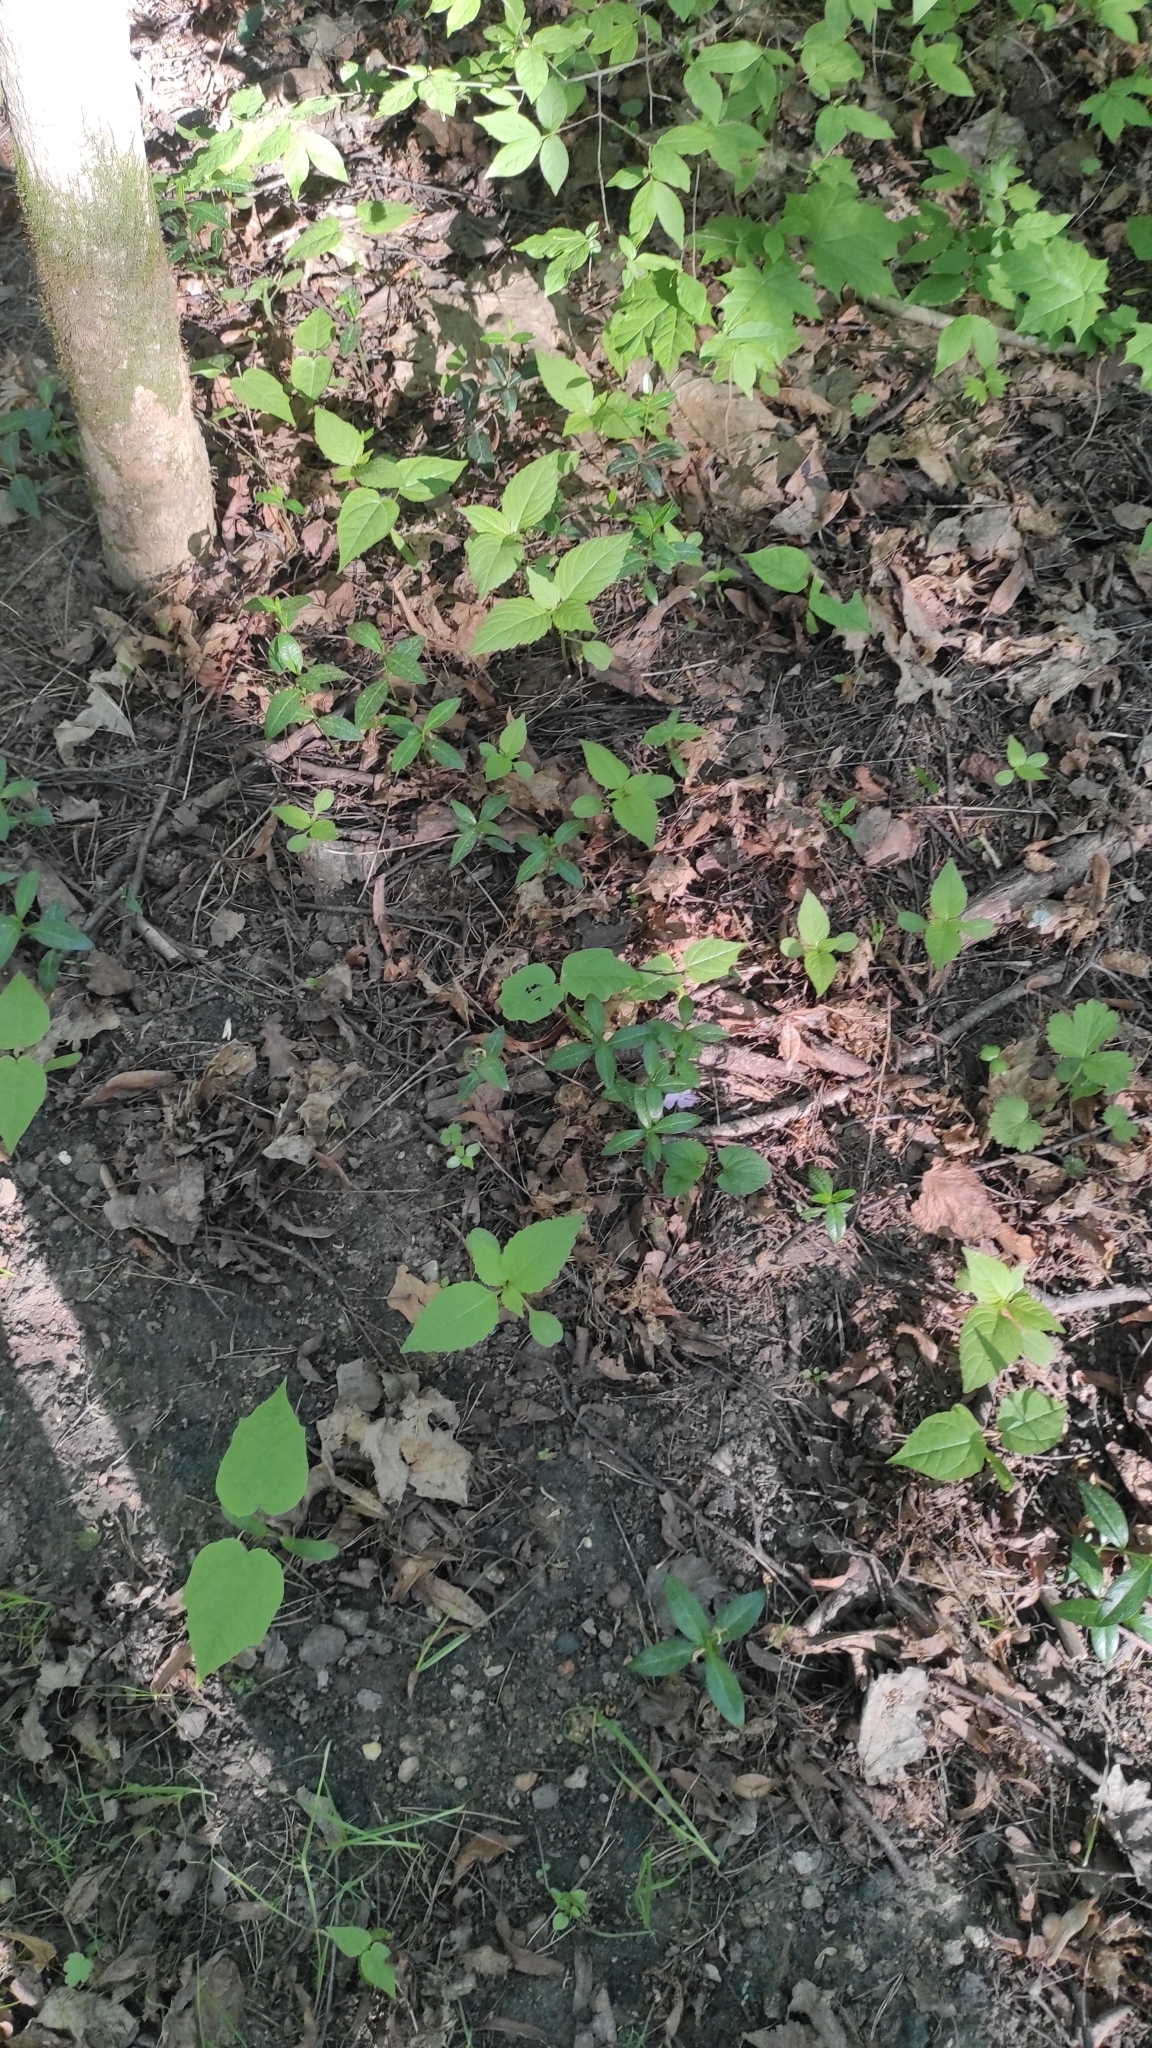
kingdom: Plantae
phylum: Tracheophyta
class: Magnoliopsida
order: Gentianales
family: Apocynaceae
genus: Vinca
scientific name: Vinca minor
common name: Lesser periwinkle
